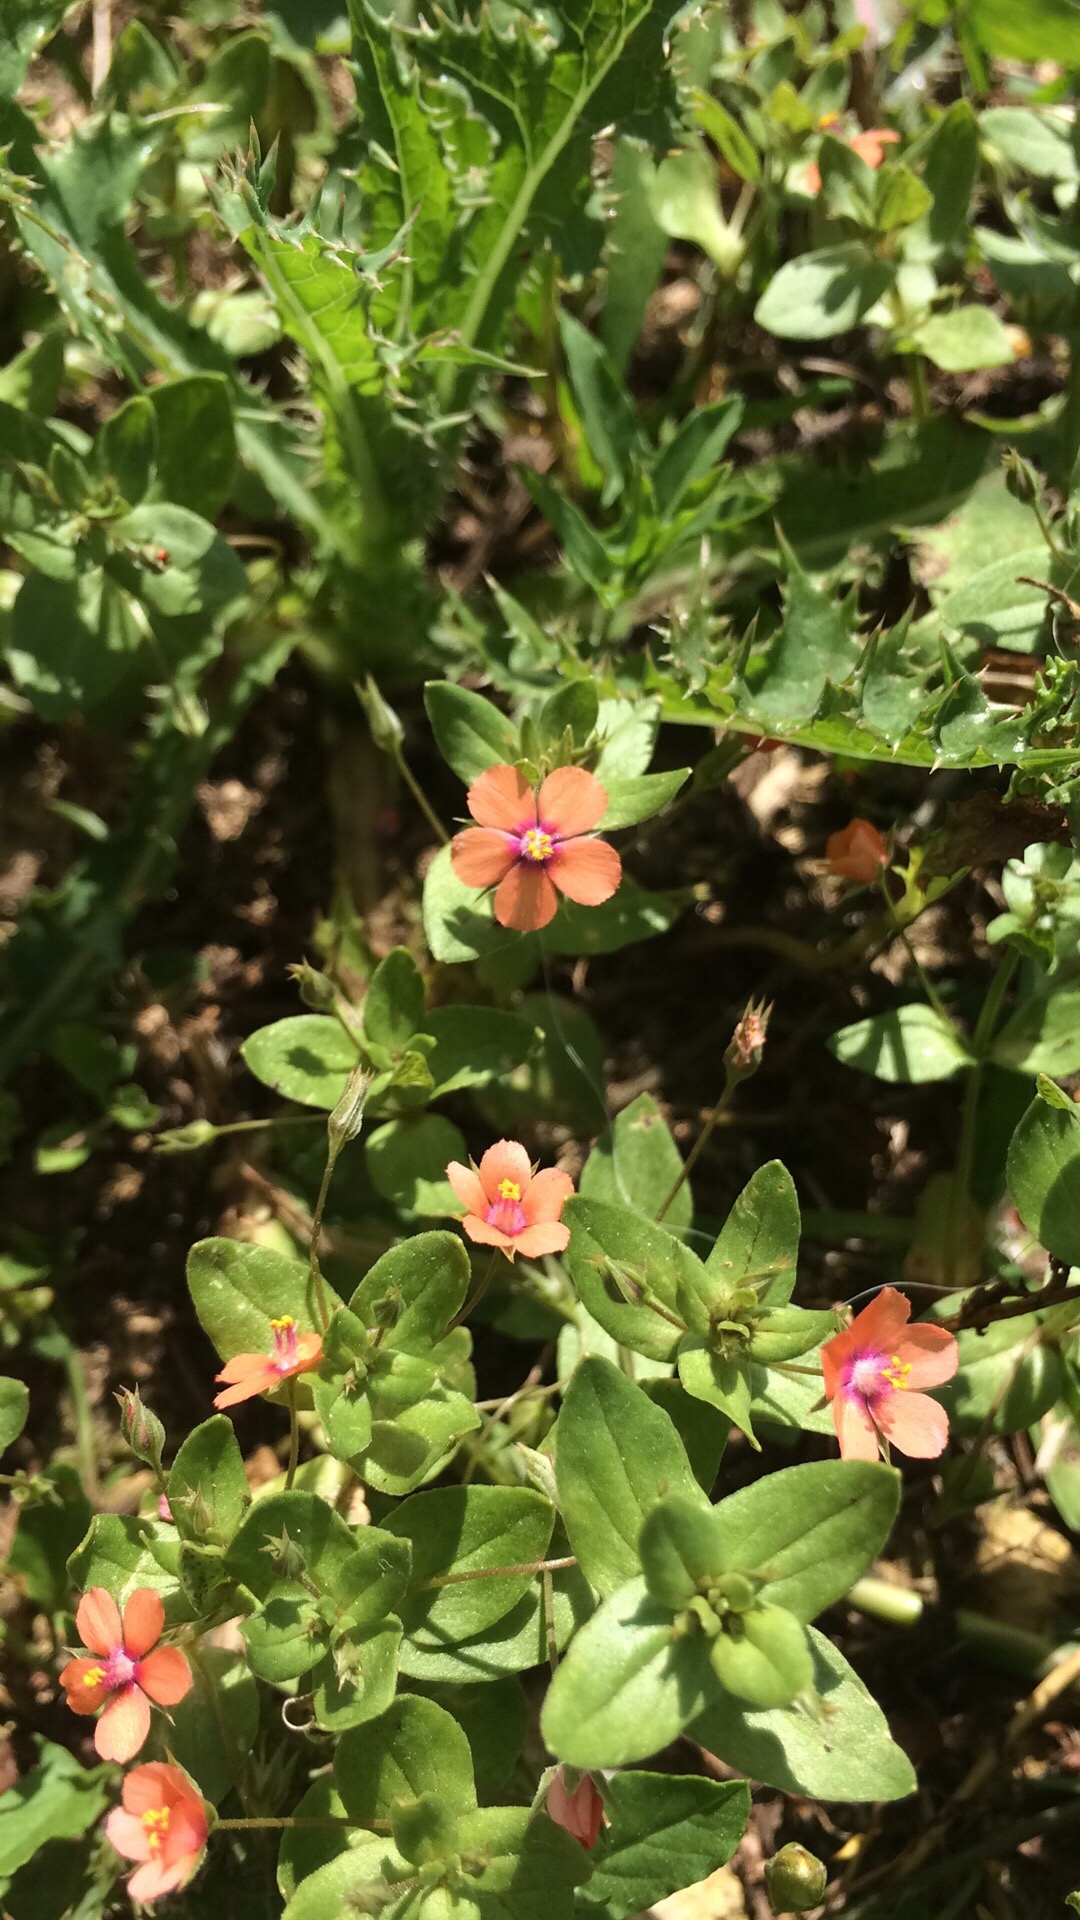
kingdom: Plantae
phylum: Tracheophyta
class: Magnoliopsida
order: Ericales
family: Primulaceae
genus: Lysimachia
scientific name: Lysimachia arvensis
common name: Scarlet pimpernel
